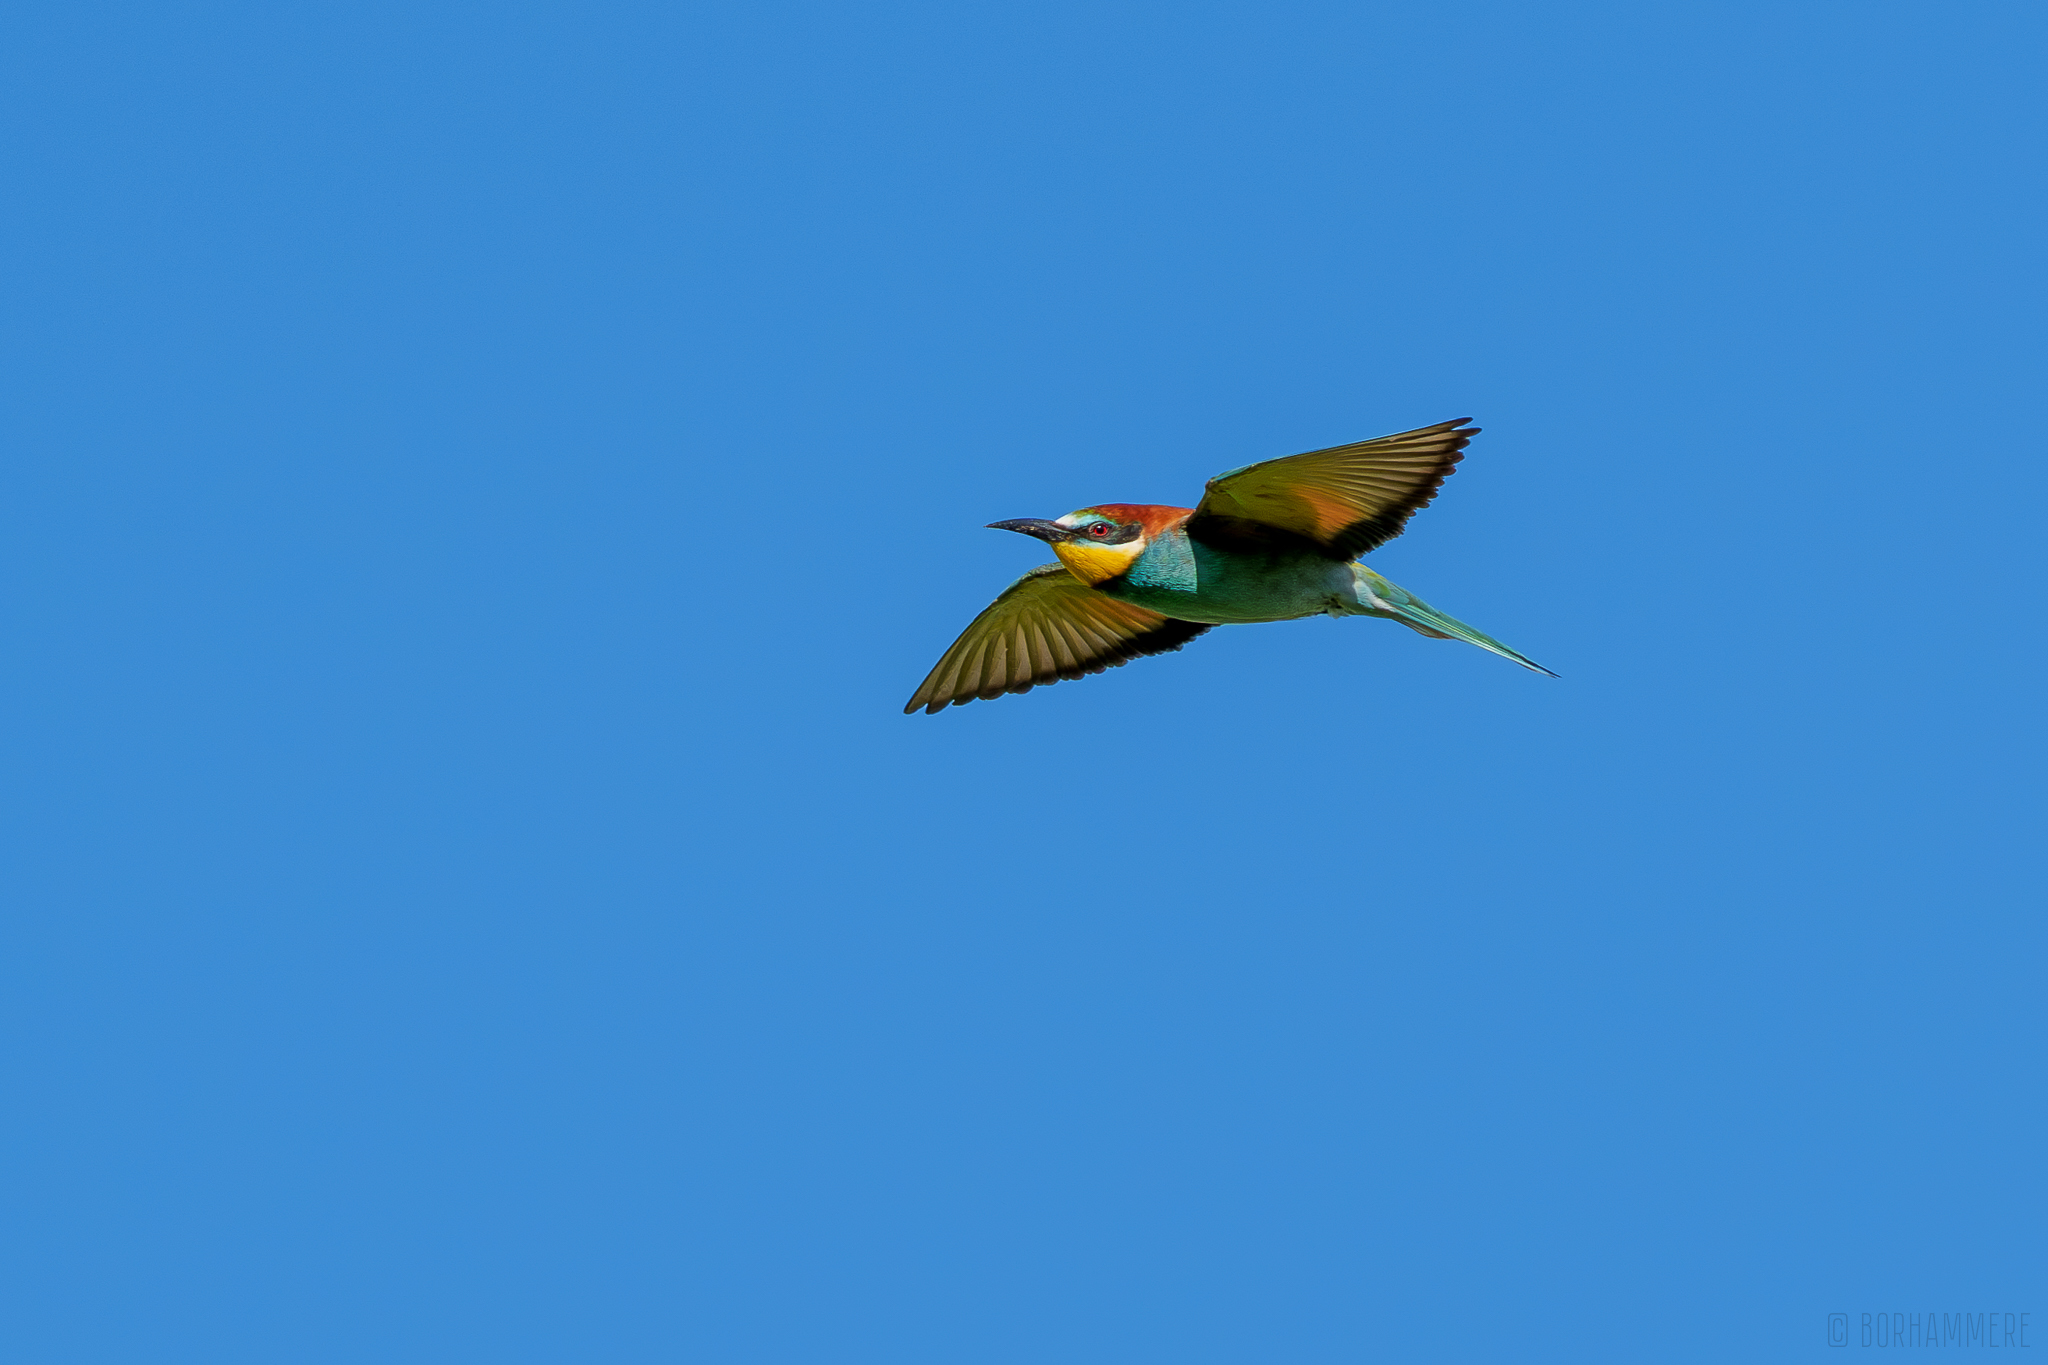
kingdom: Animalia
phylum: Chordata
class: Aves
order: Coraciiformes
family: Meropidae
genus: Merops
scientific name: Merops apiaster
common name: European bee-eater
